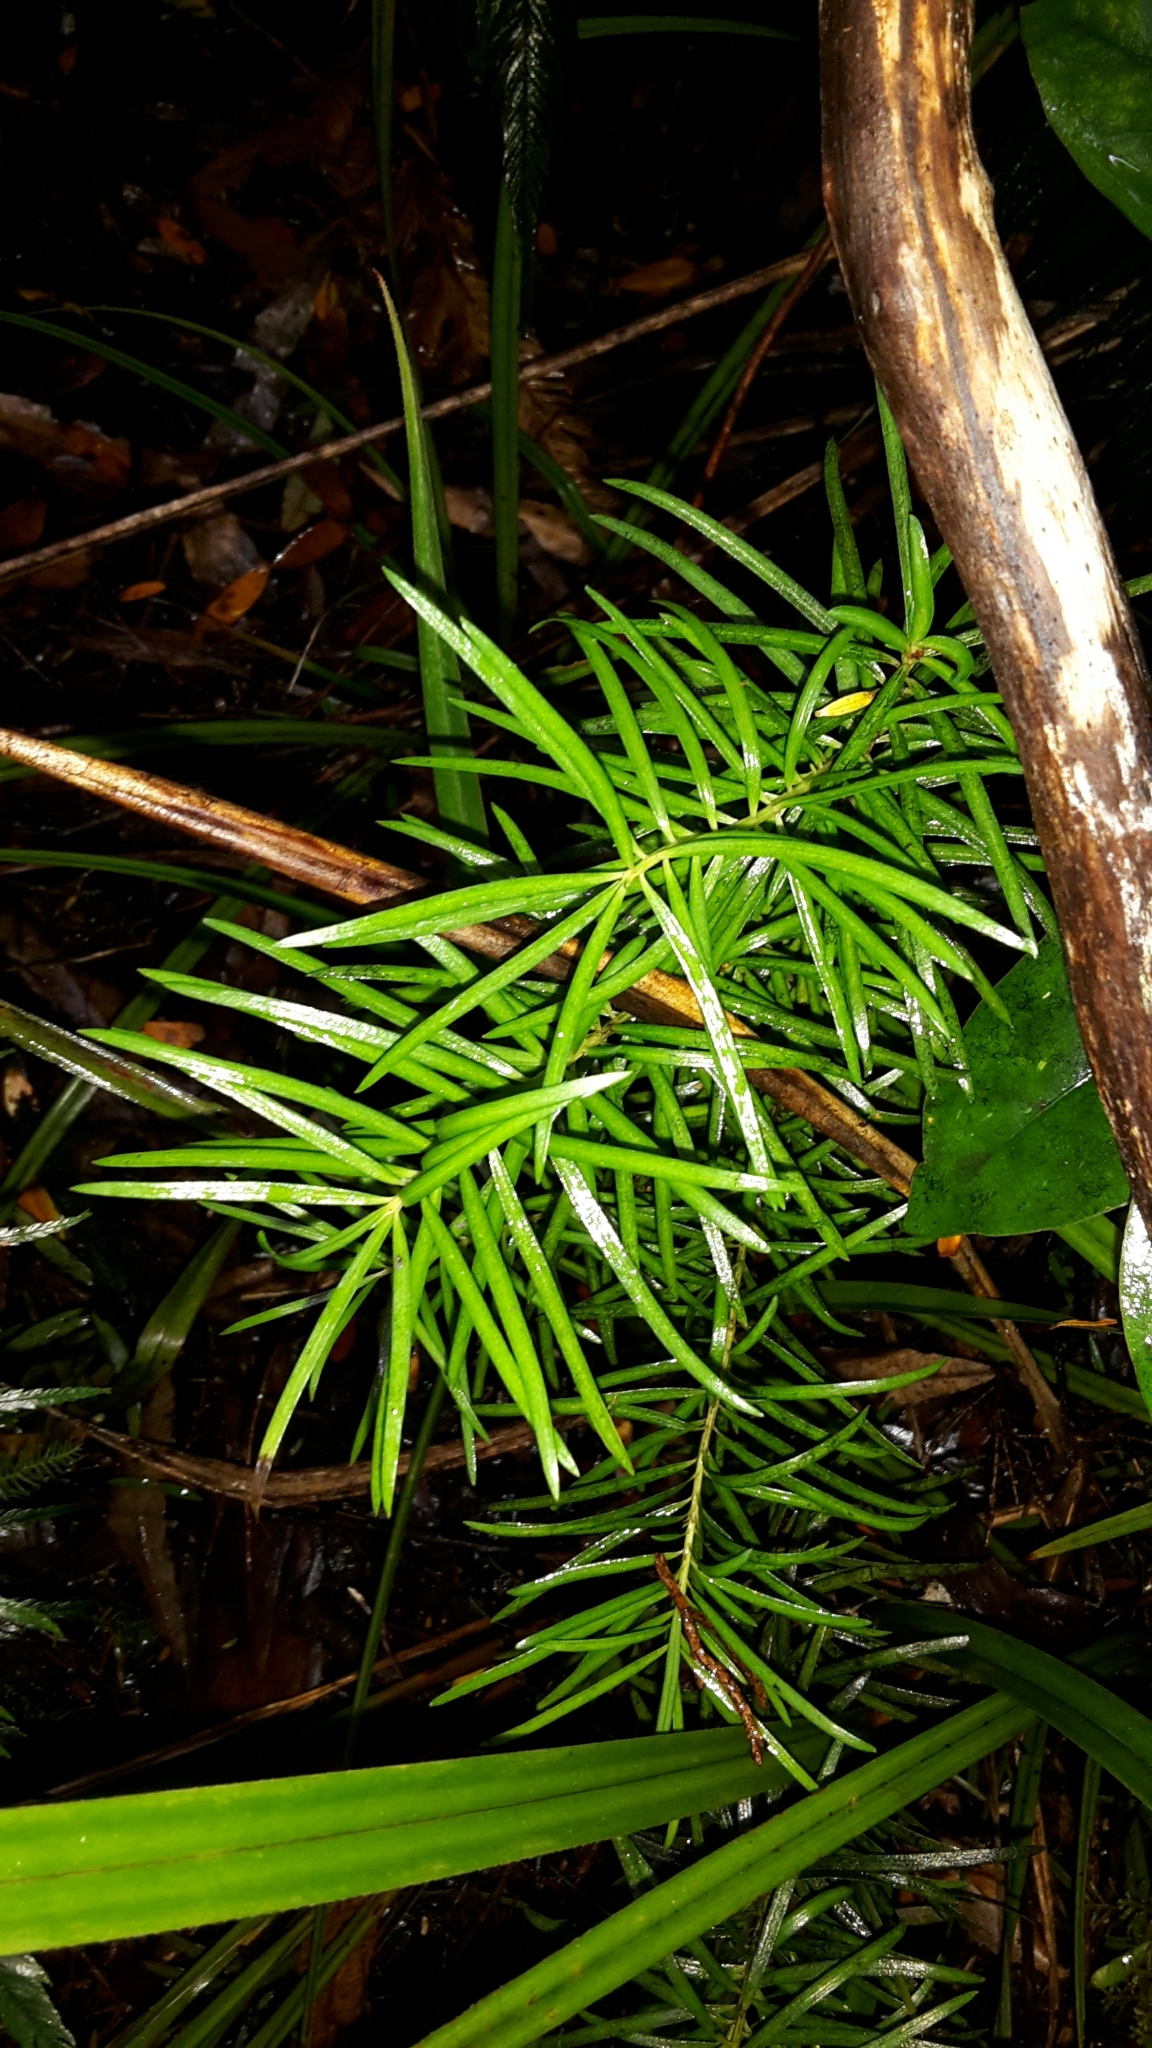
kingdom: Plantae
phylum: Tracheophyta
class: Pinopsida
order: Pinales
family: Podocarpaceae
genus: Halocarpus
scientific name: Halocarpus kirkii
